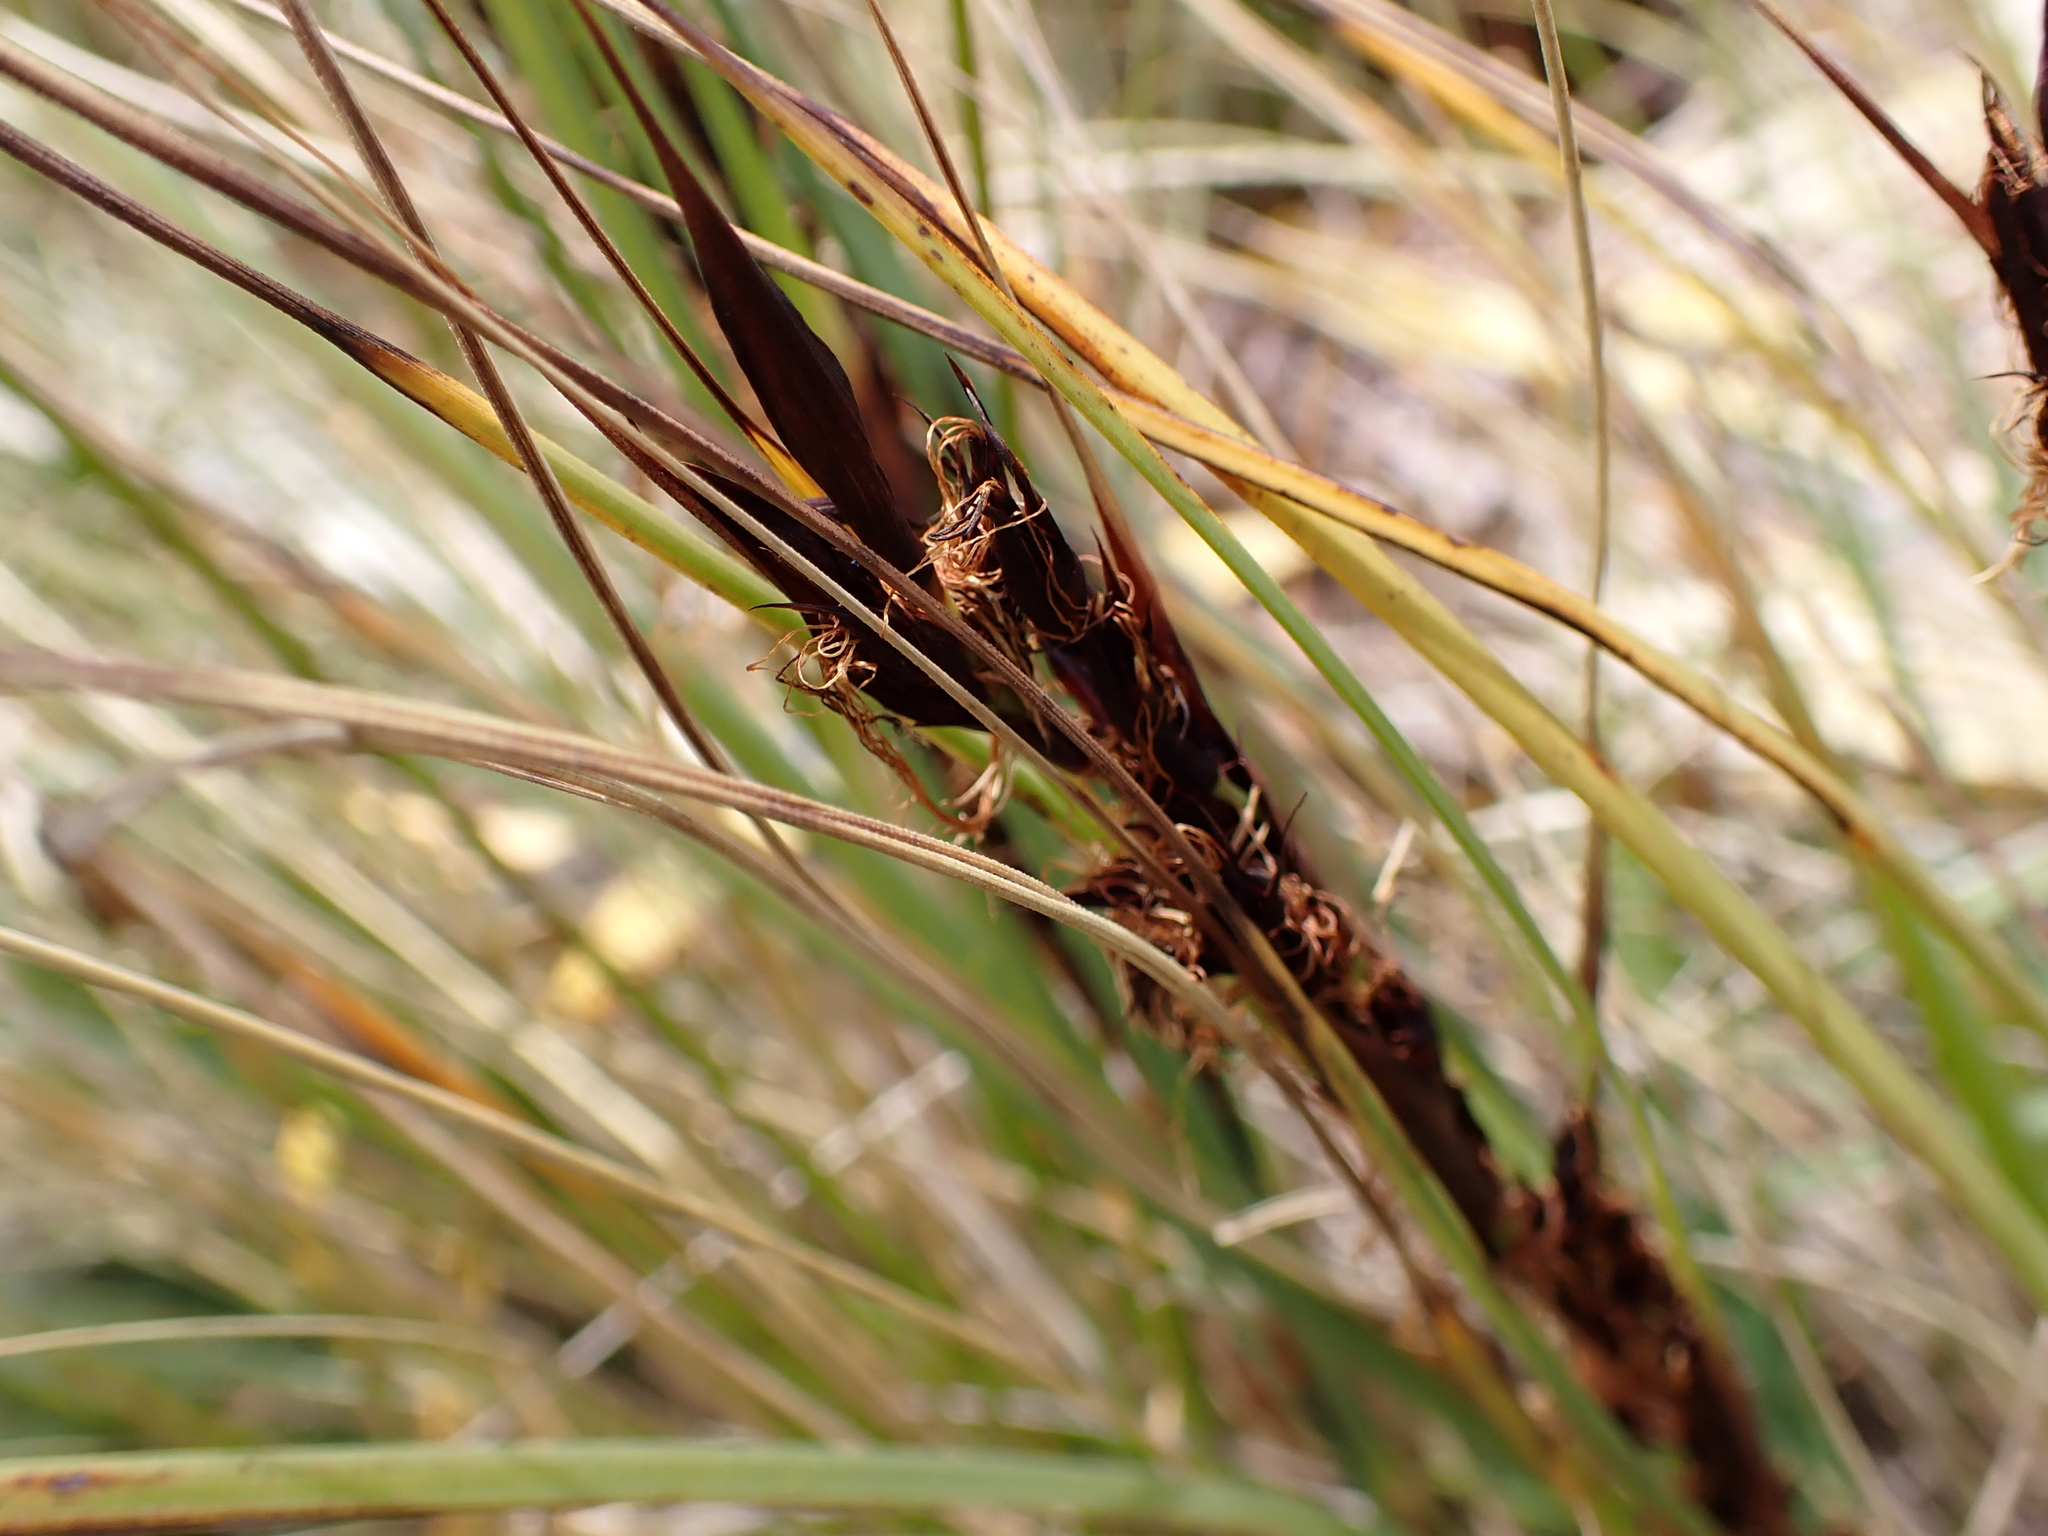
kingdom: Plantae
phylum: Tracheophyta
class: Liliopsida
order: Poales
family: Cyperaceae
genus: Gahnia
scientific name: Gahnia procera
